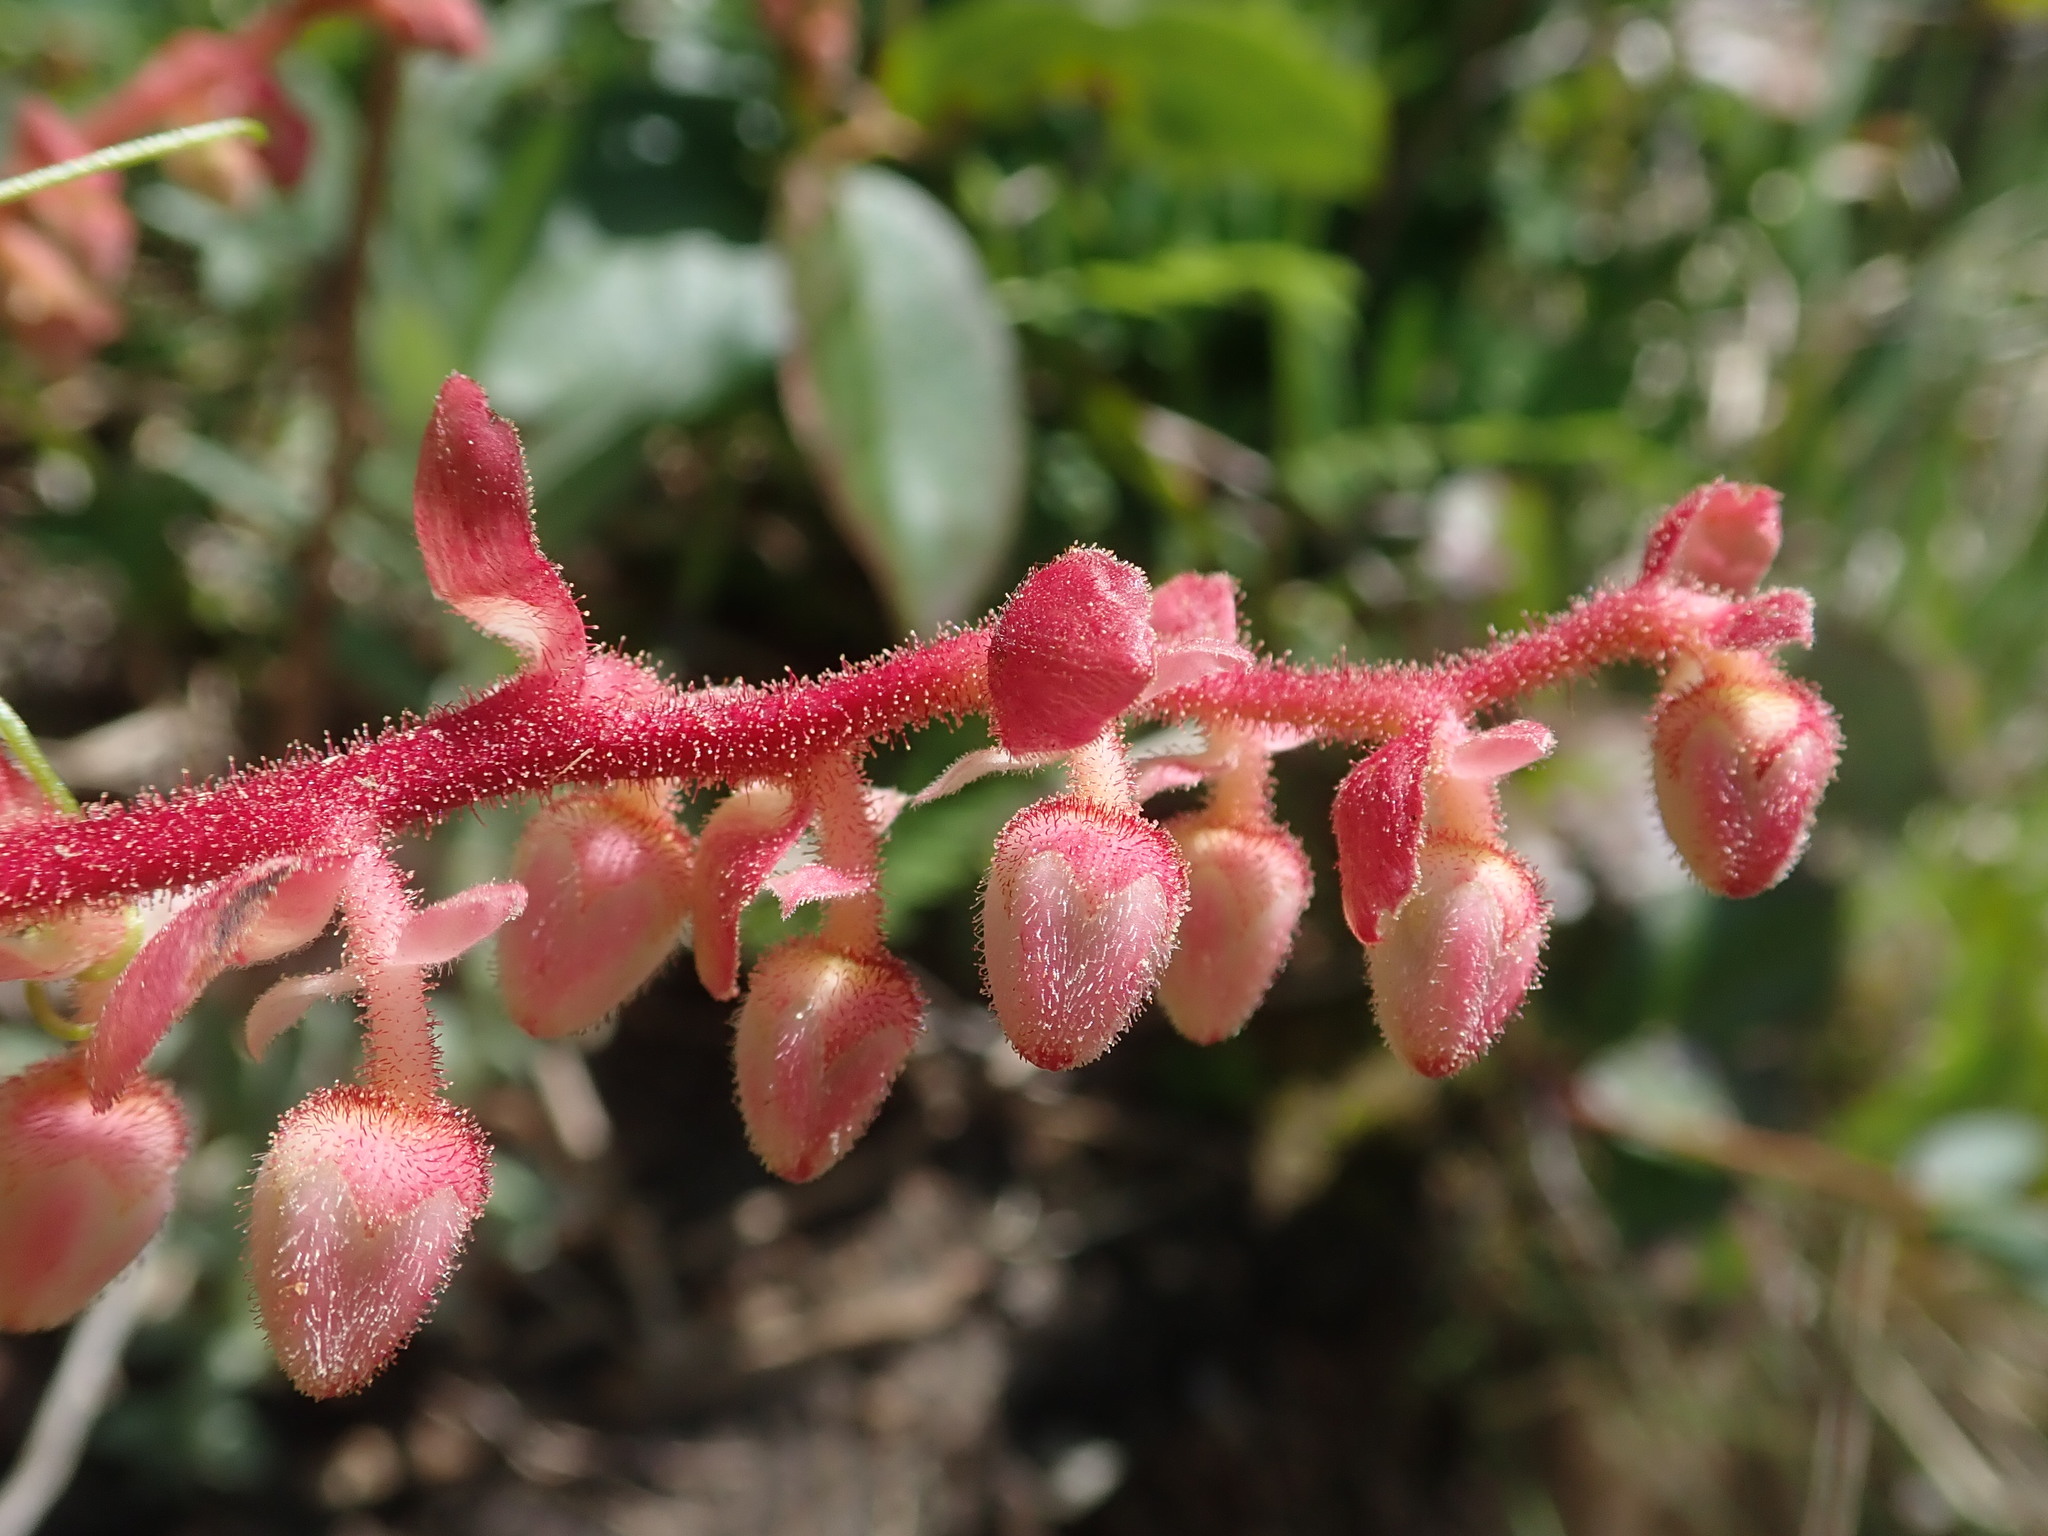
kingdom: Plantae
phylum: Tracheophyta
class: Magnoliopsida
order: Ericales
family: Ericaceae
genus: Gaultheria
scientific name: Gaultheria shallon
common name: Shallon
